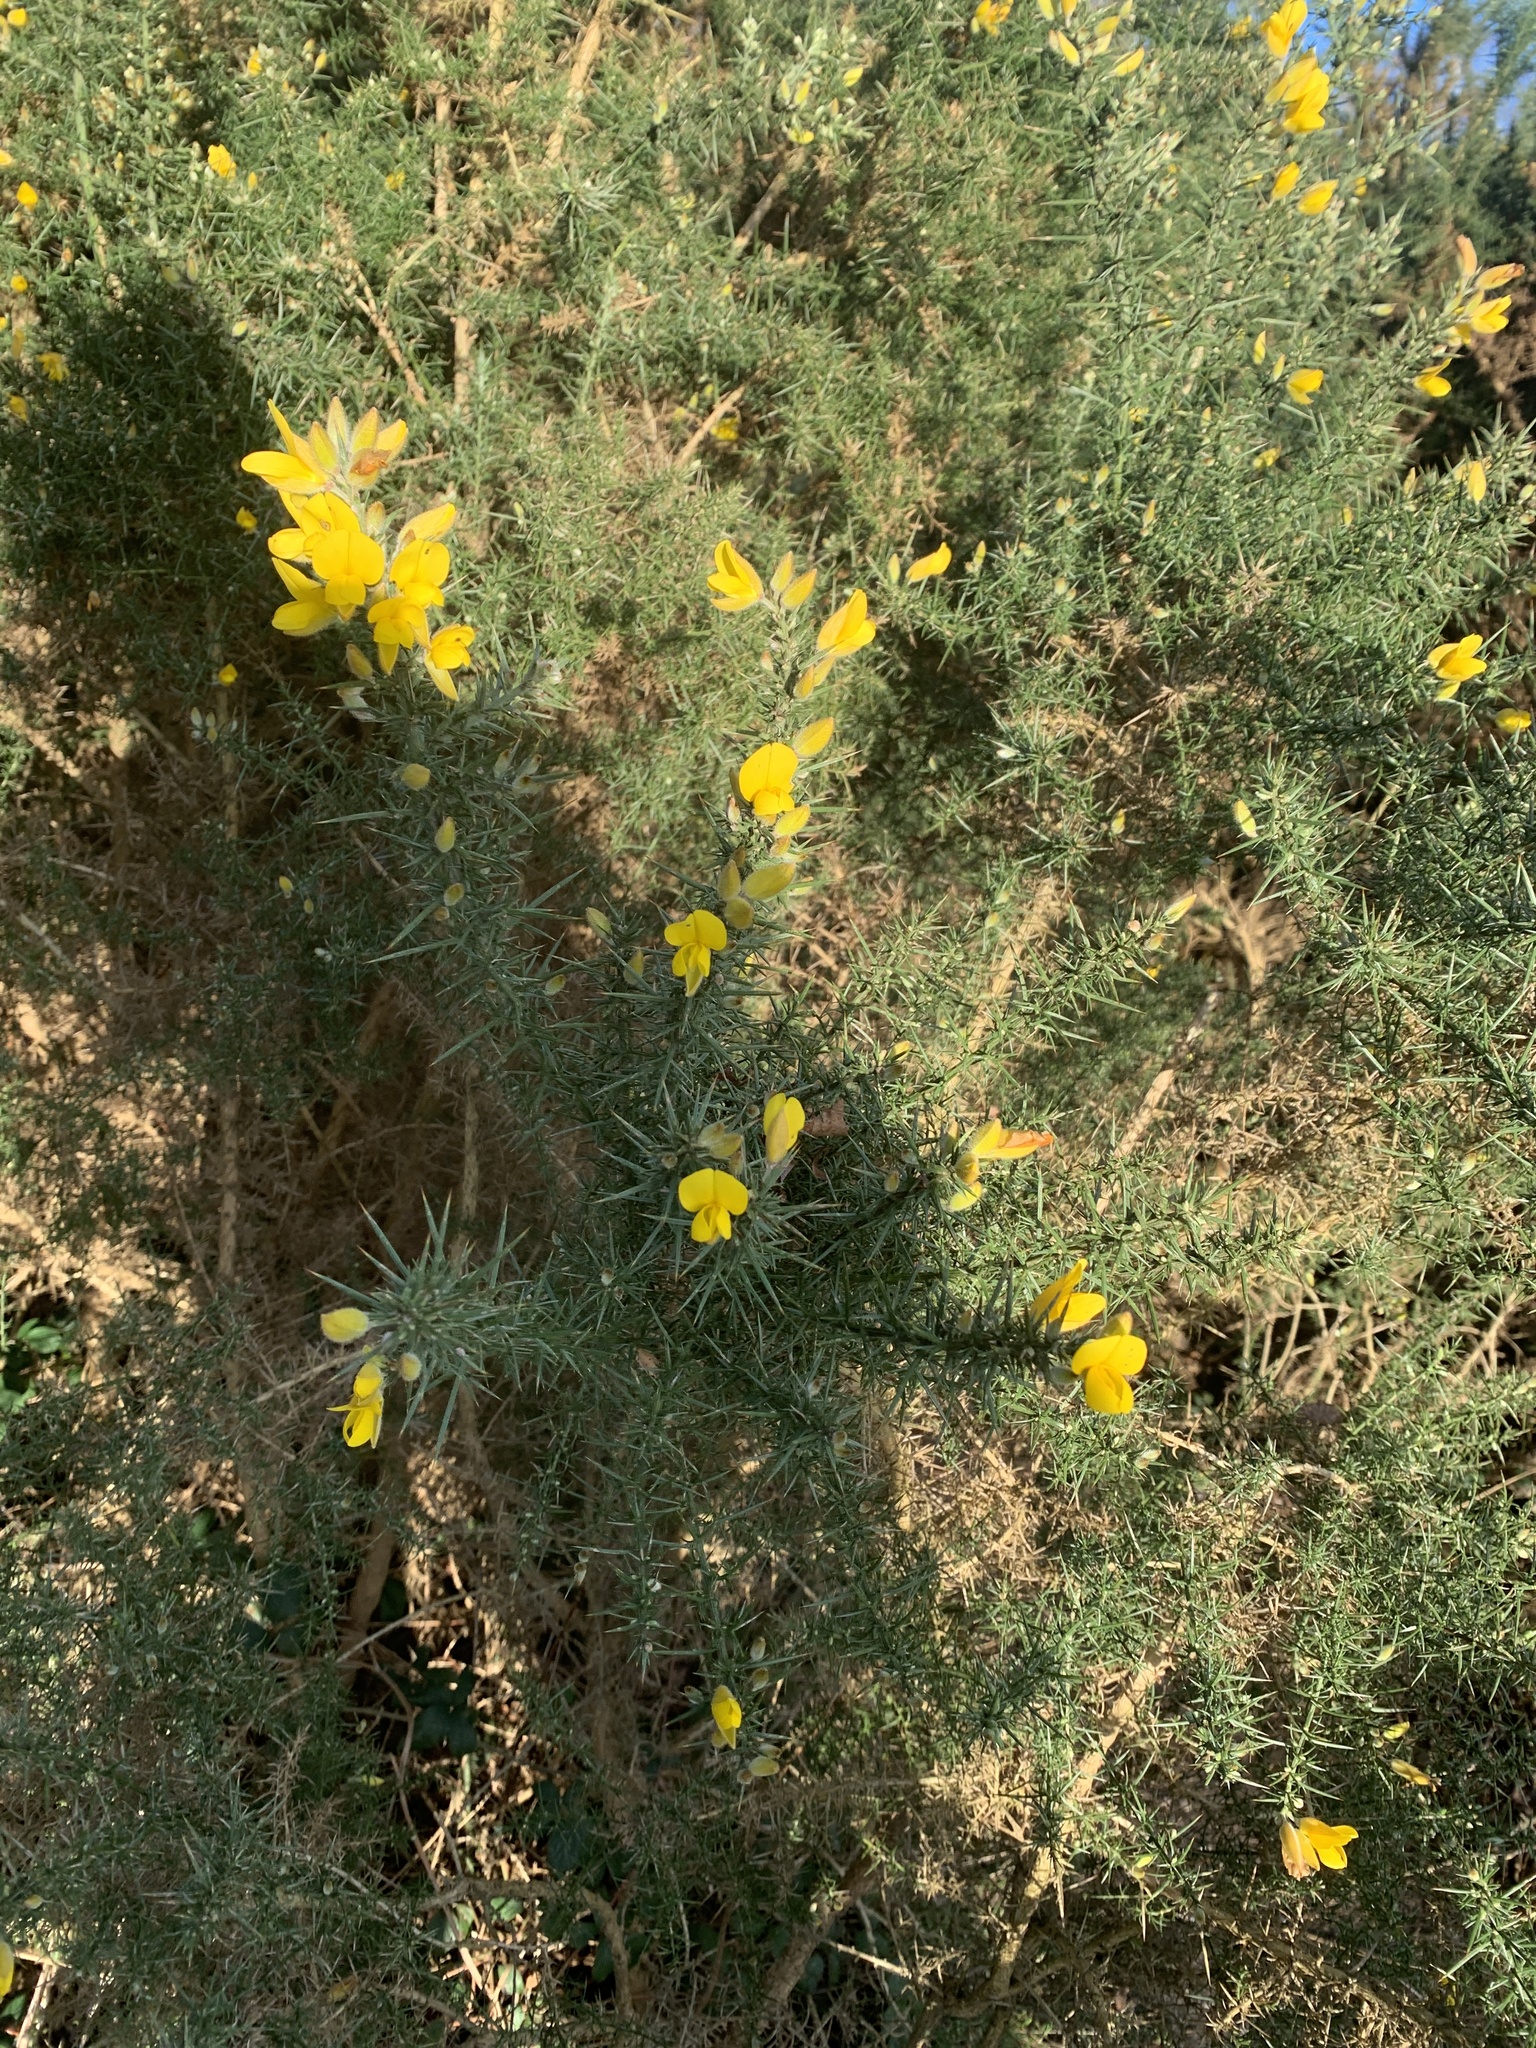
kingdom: Plantae
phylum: Tracheophyta
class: Magnoliopsida
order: Fabales
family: Fabaceae
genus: Ulex
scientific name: Ulex europaeus
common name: Common gorse
